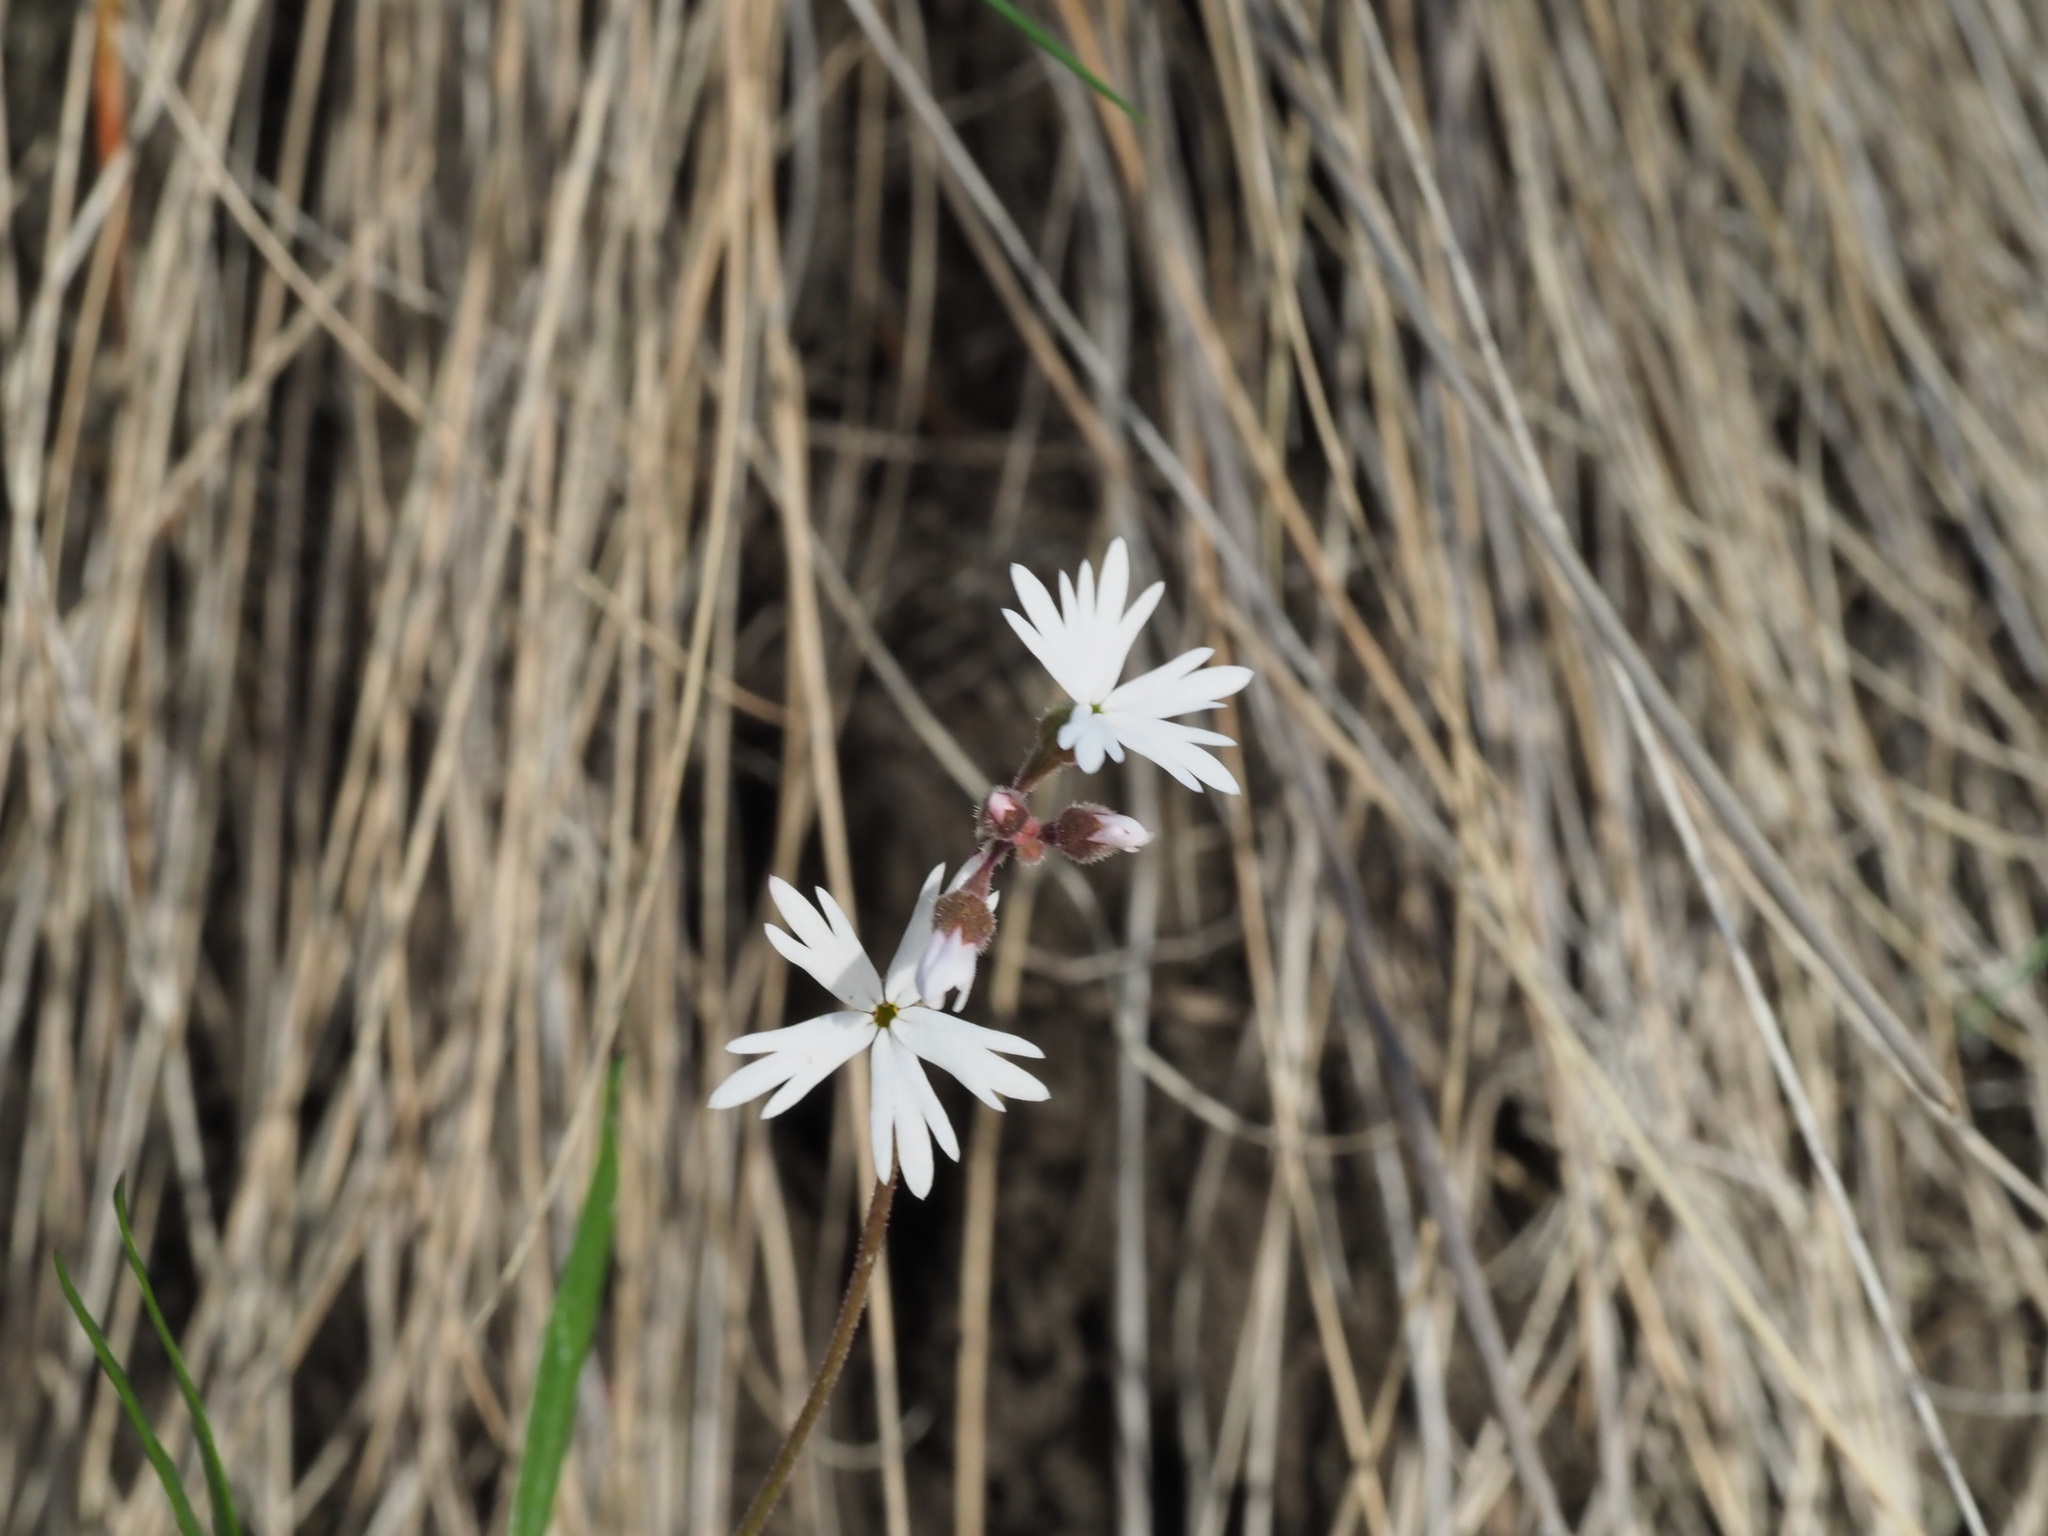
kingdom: Plantae
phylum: Tracheophyta
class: Magnoliopsida
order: Saxifragales
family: Saxifragaceae
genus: Lithophragma
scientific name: Lithophragma parviflorum
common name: Small-flowered fringe-cup
